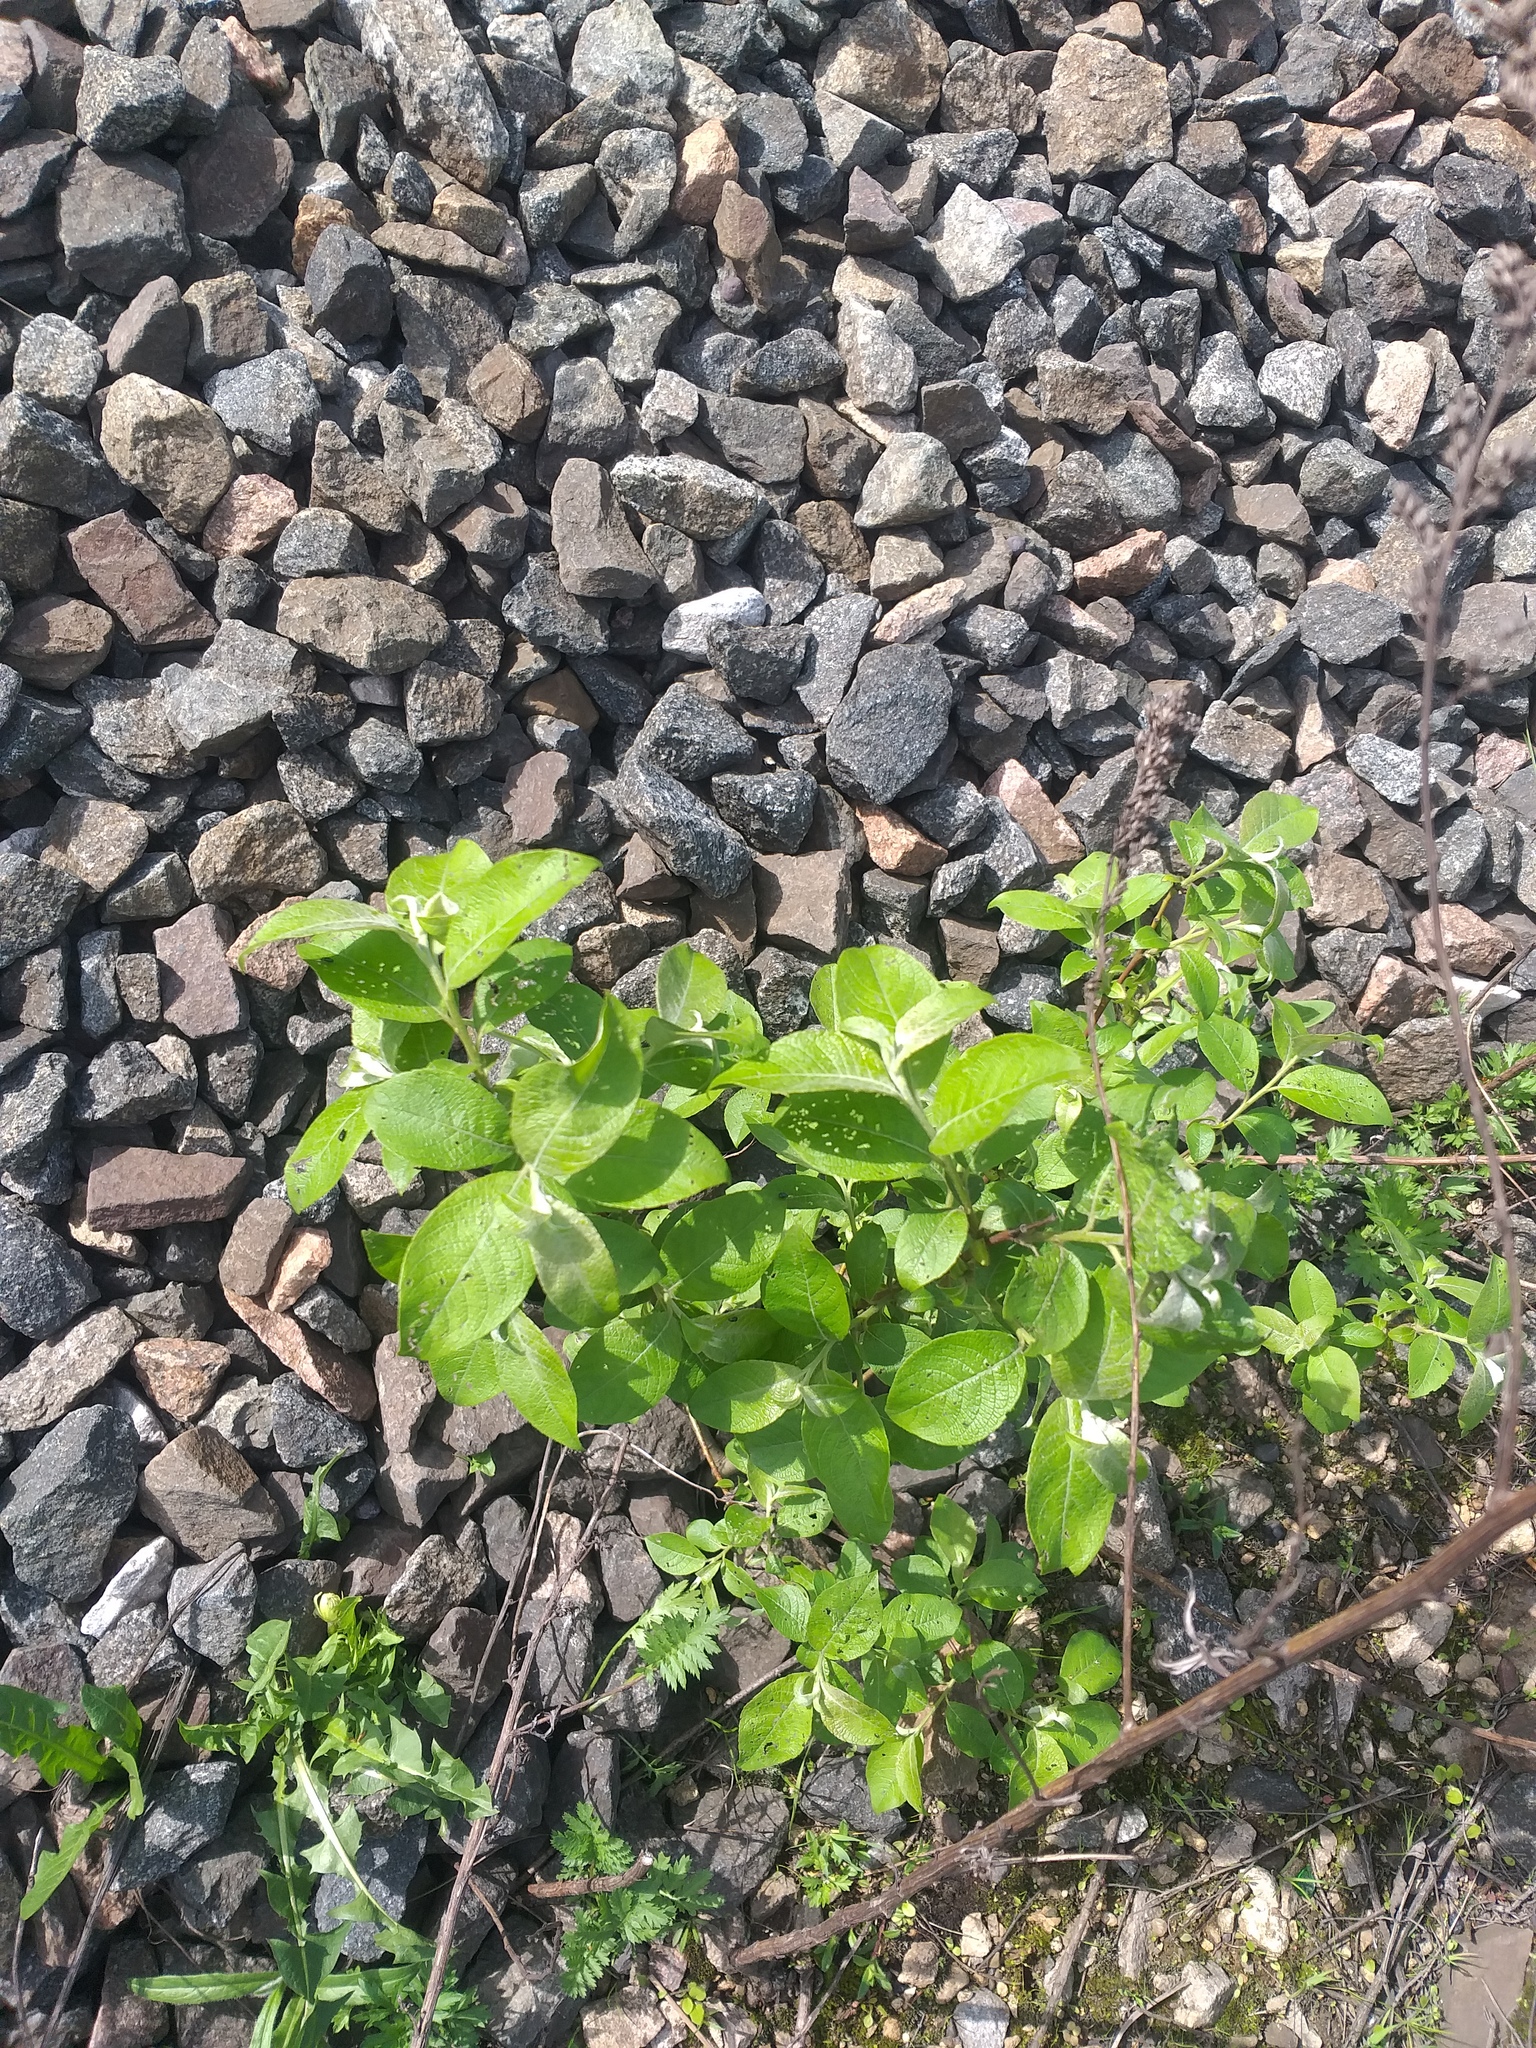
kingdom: Plantae
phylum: Tracheophyta
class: Magnoliopsida
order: Malpighiales
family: Salicaceae
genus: Salix
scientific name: Salix caprea
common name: Goat willow
